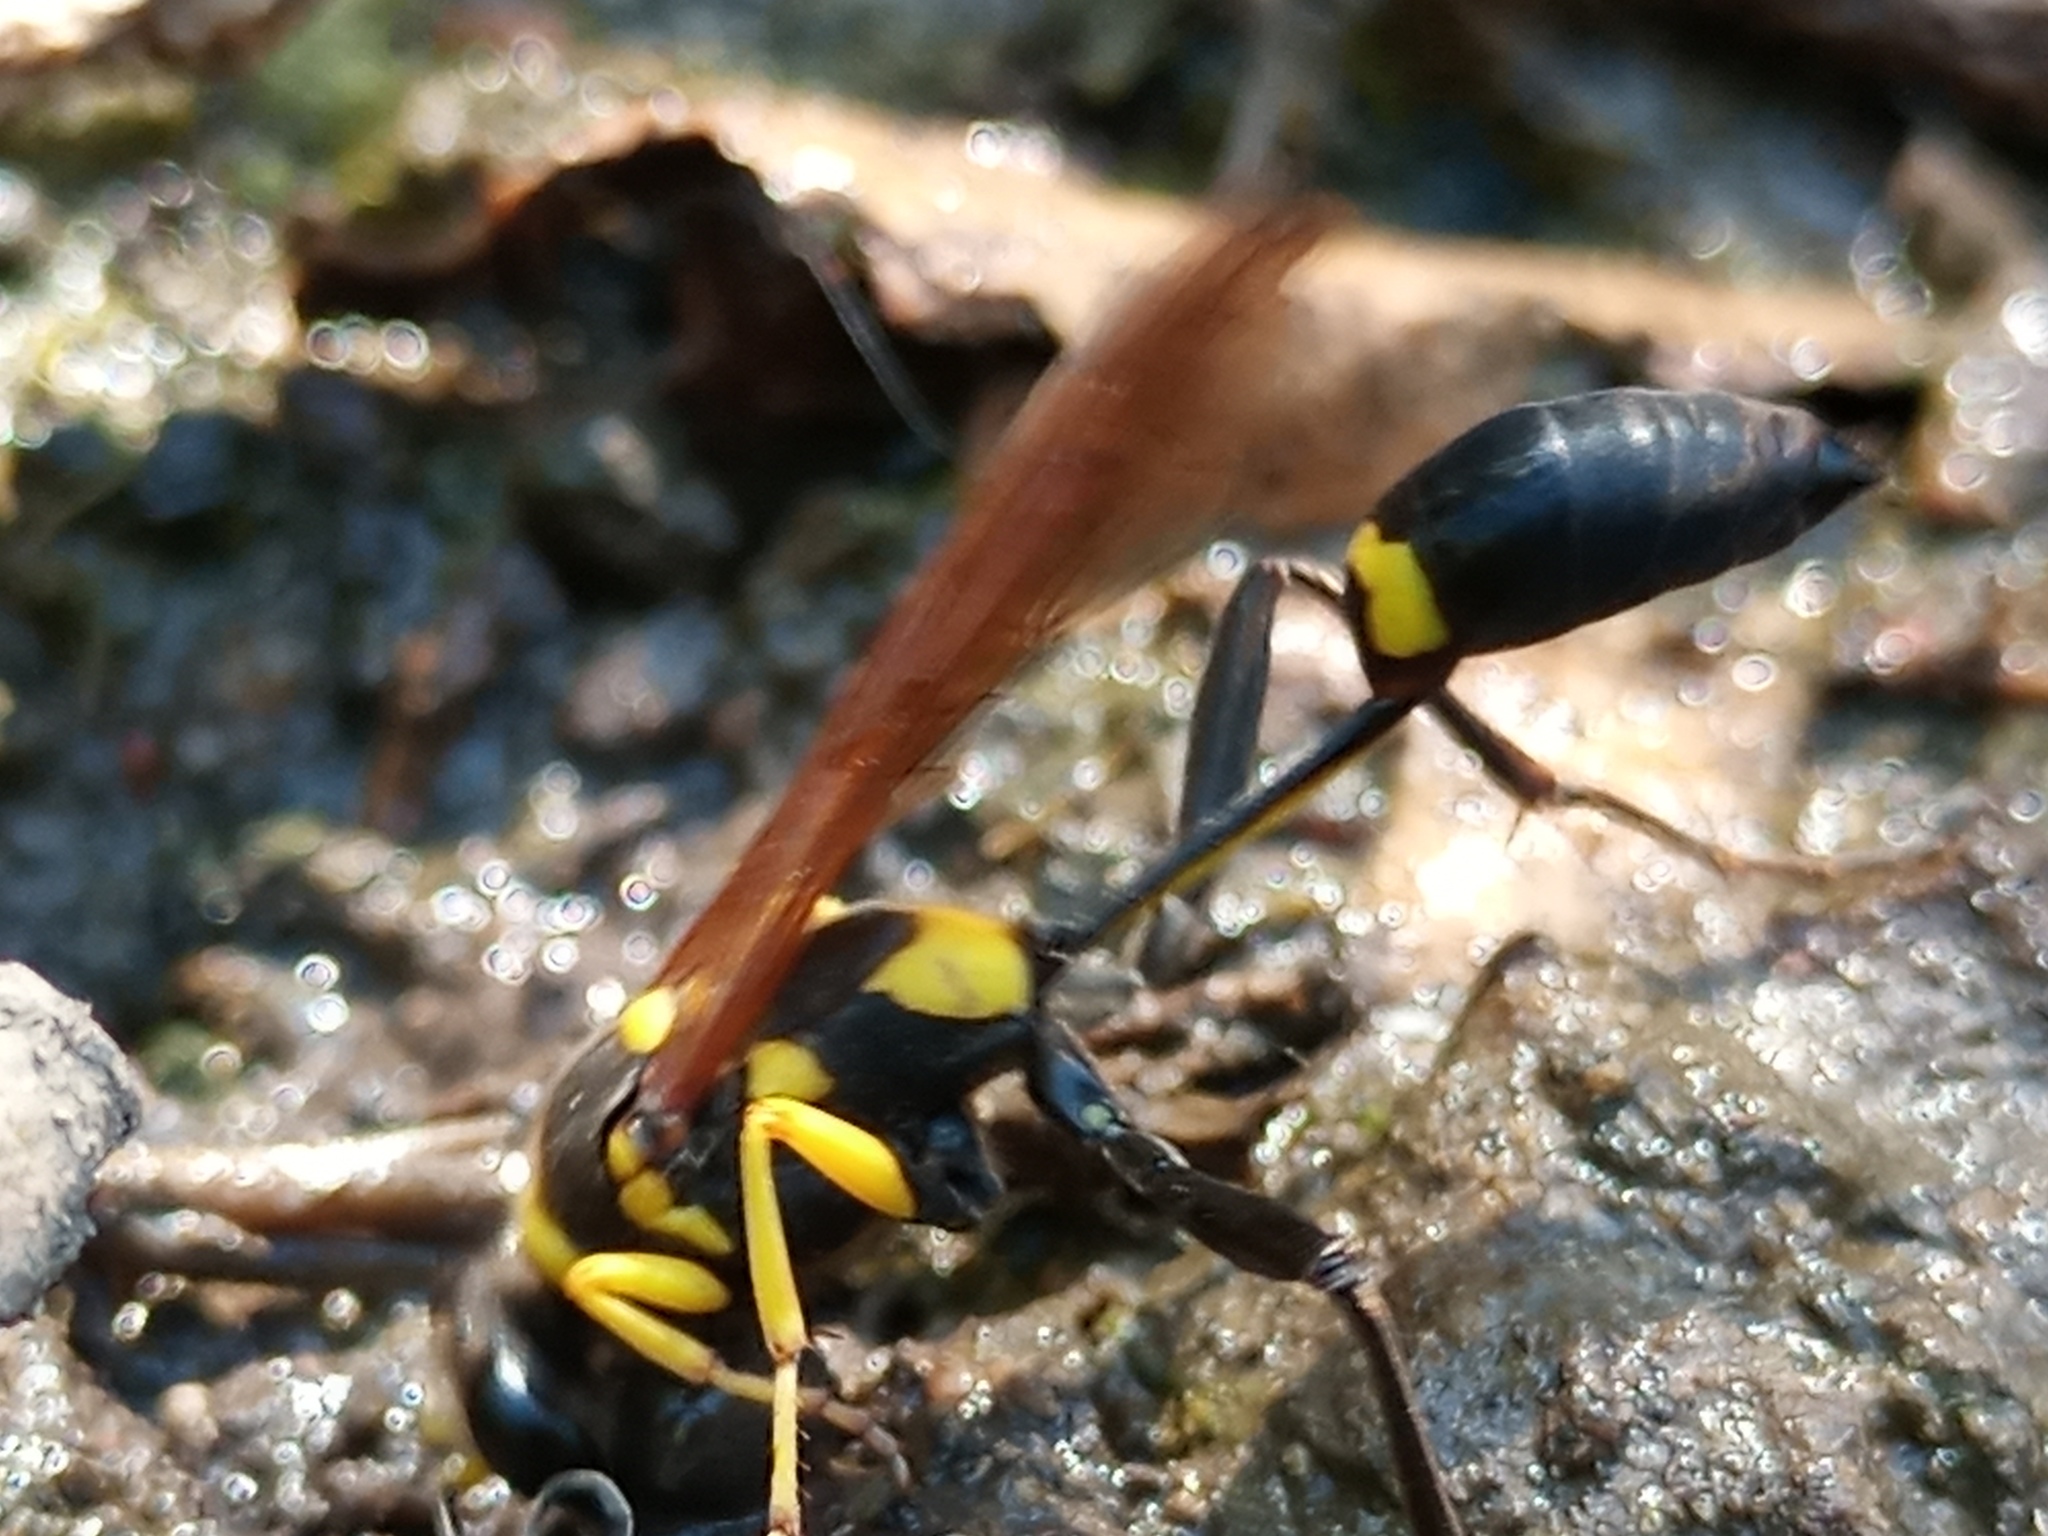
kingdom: Animalia
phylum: Arthropoda
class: Insecta
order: Hymenoptera
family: Sphecidae
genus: Sceliphron
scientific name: Sceliphron asiaticum
